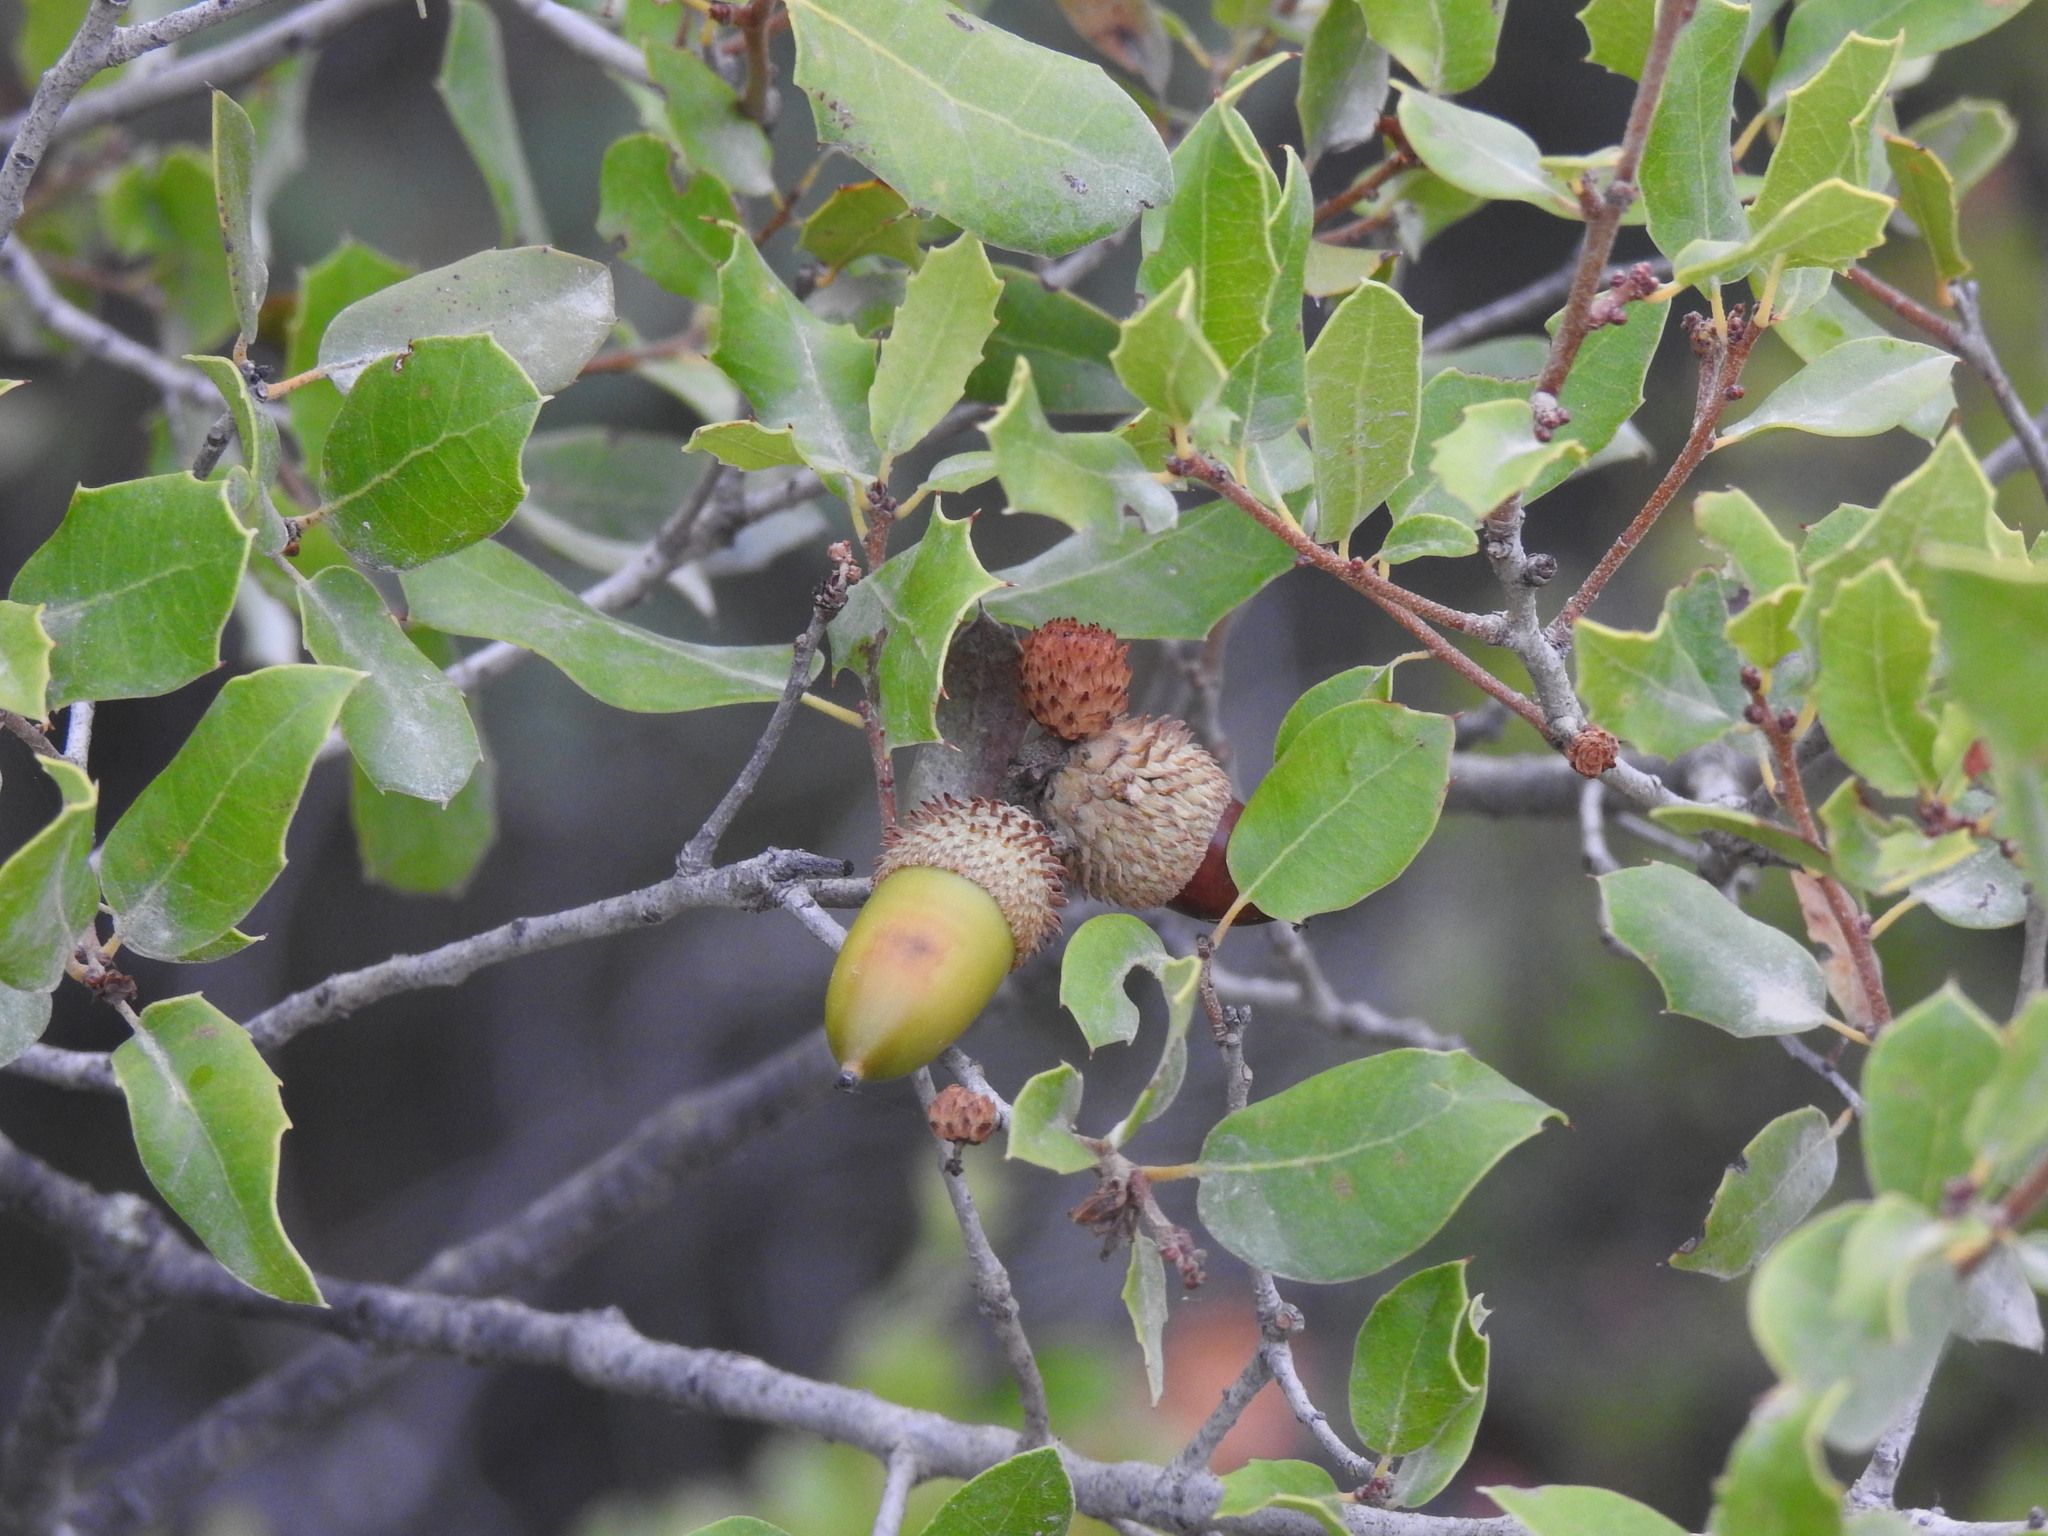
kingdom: Plantae
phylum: Tracheophyta
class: Magnoliopsida
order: Fagales
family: Fagaceae
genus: Quercus
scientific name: Quercus coccifera
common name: Kermes oak
